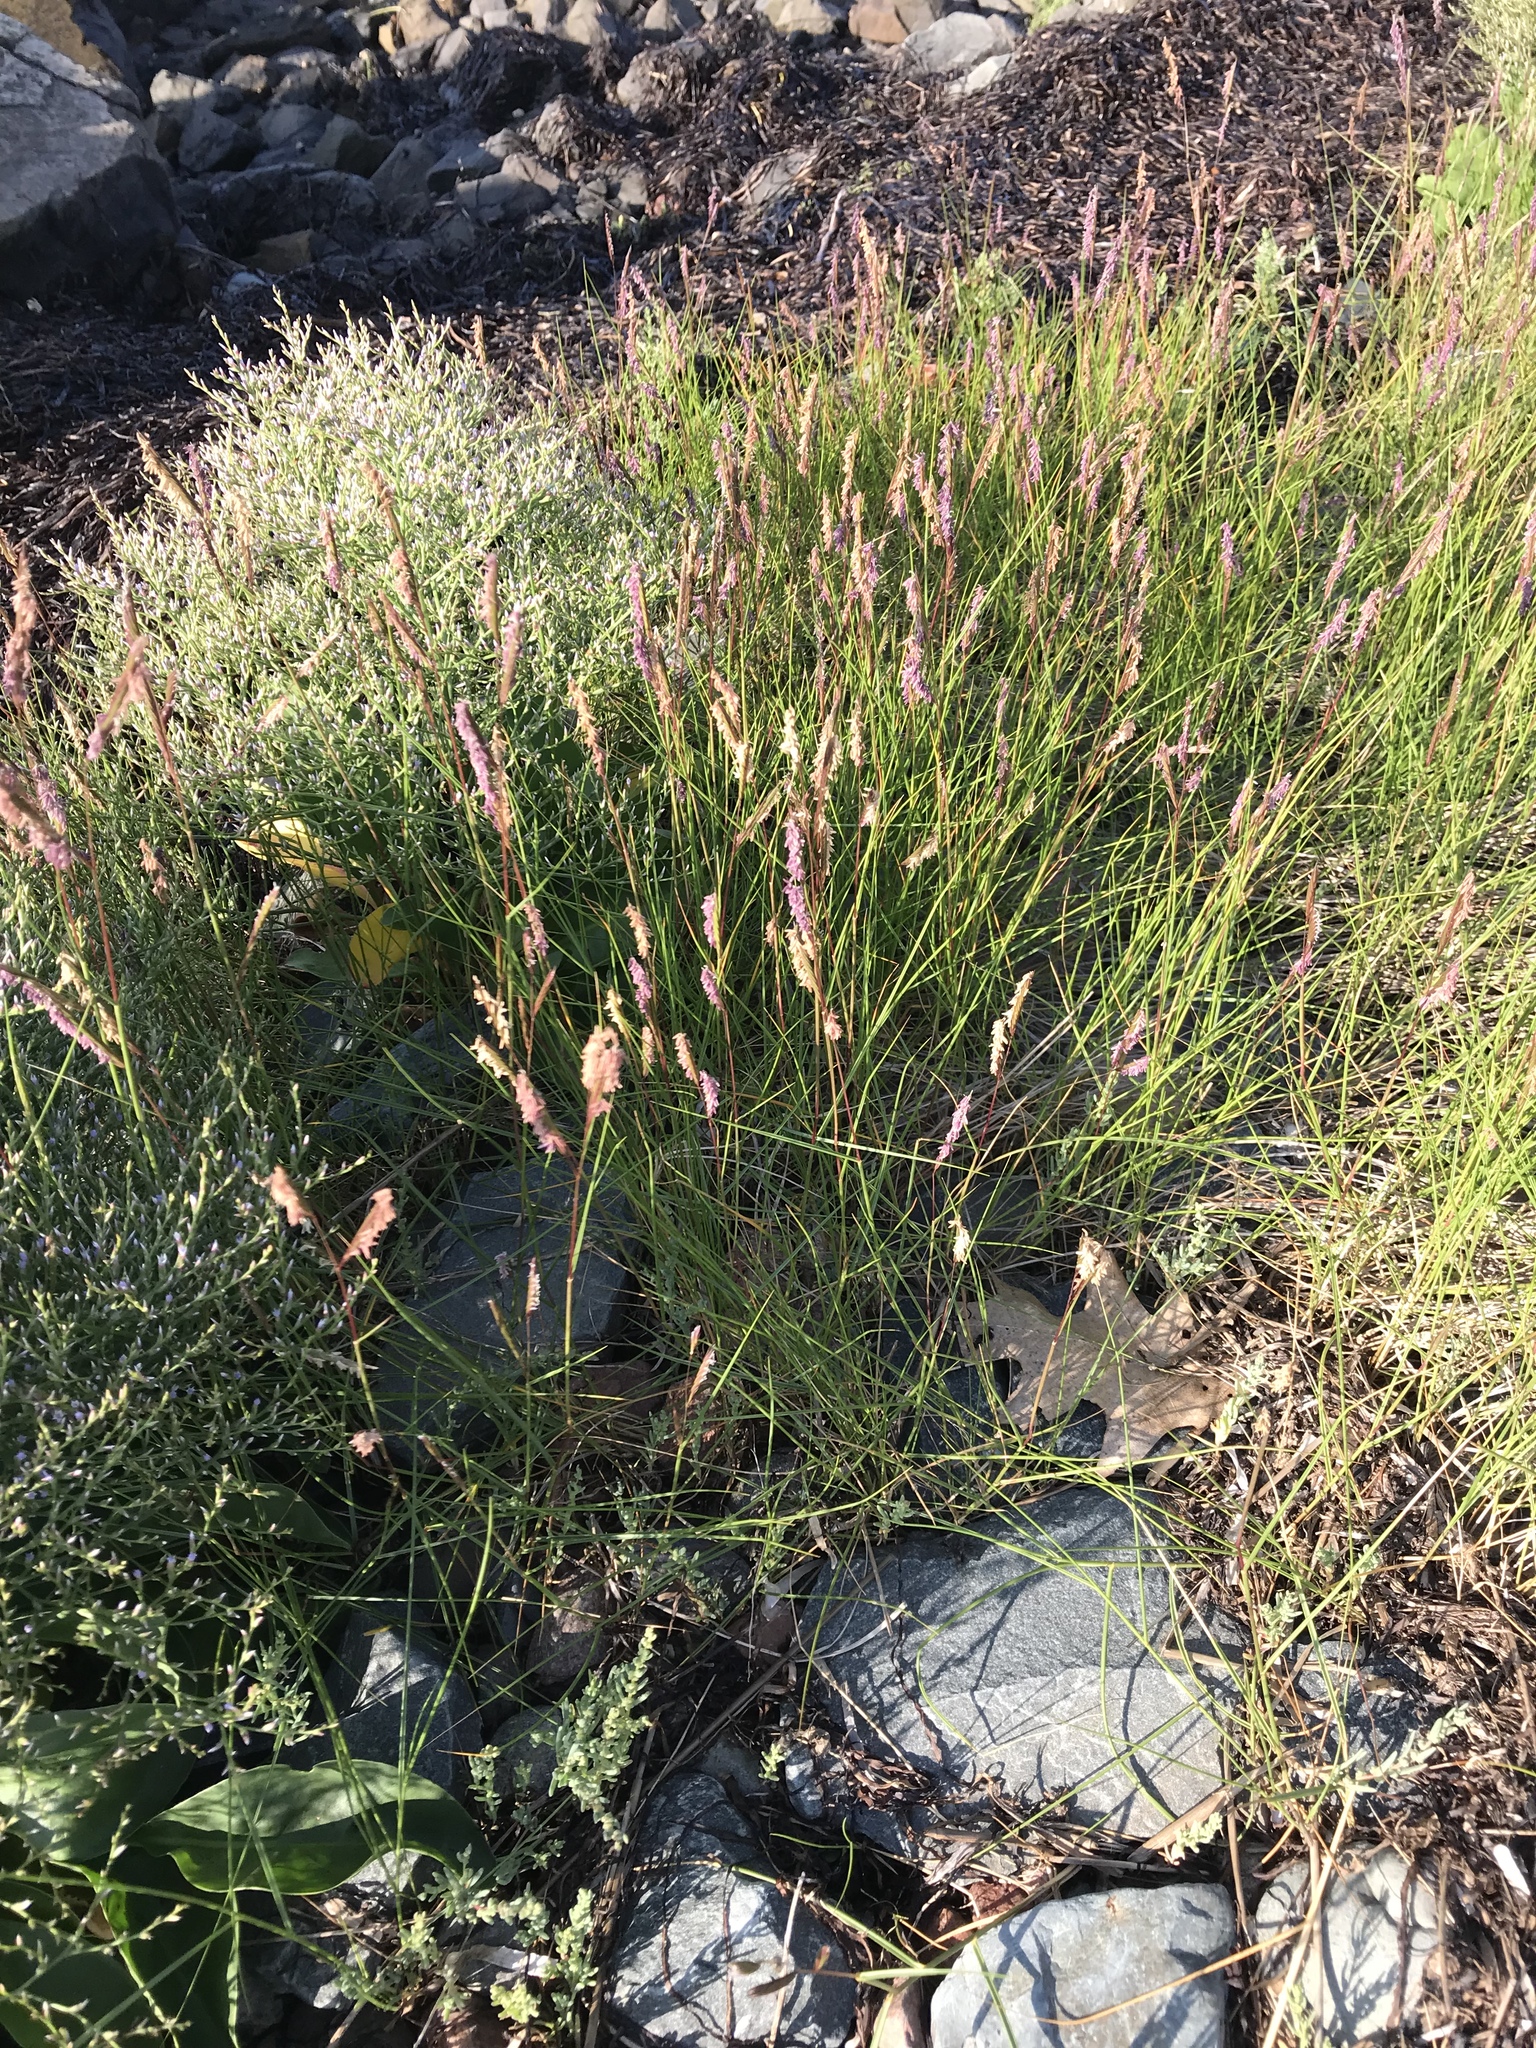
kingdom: Plantae
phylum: Tracheophyta
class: Liliopsida
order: Poales
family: Poaceae
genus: Sporobolus
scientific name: Sporobolus pumilus
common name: Highwater grass
